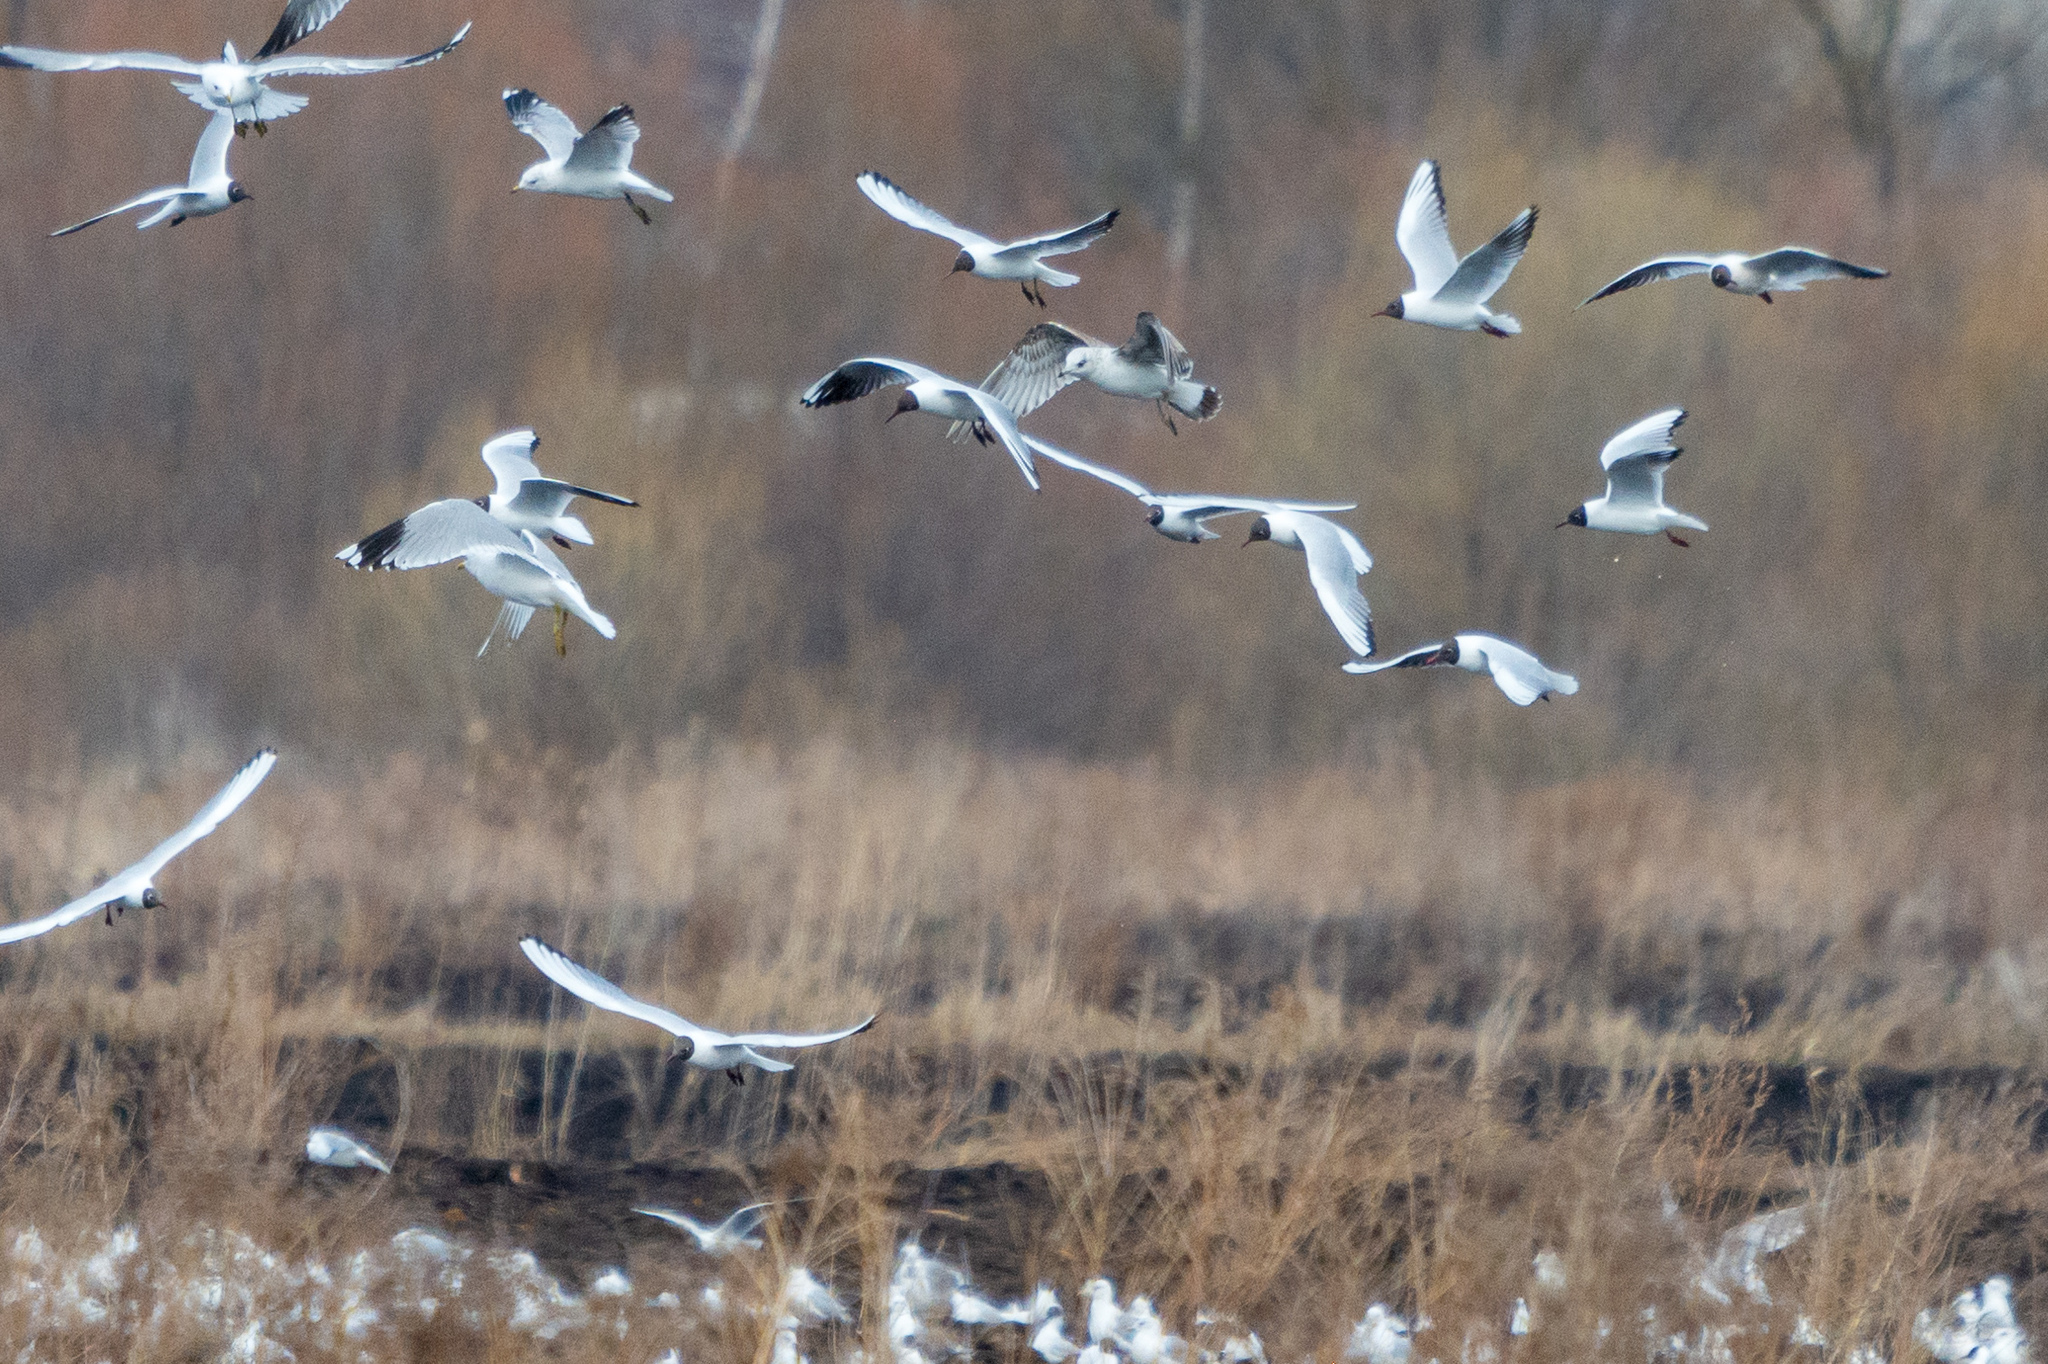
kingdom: Animalia
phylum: Chordata
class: Aves
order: Charadriiformes
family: Laridae
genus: Chroicocephalus
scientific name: Chroicocephalus ridibundus
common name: Black-headed gull
